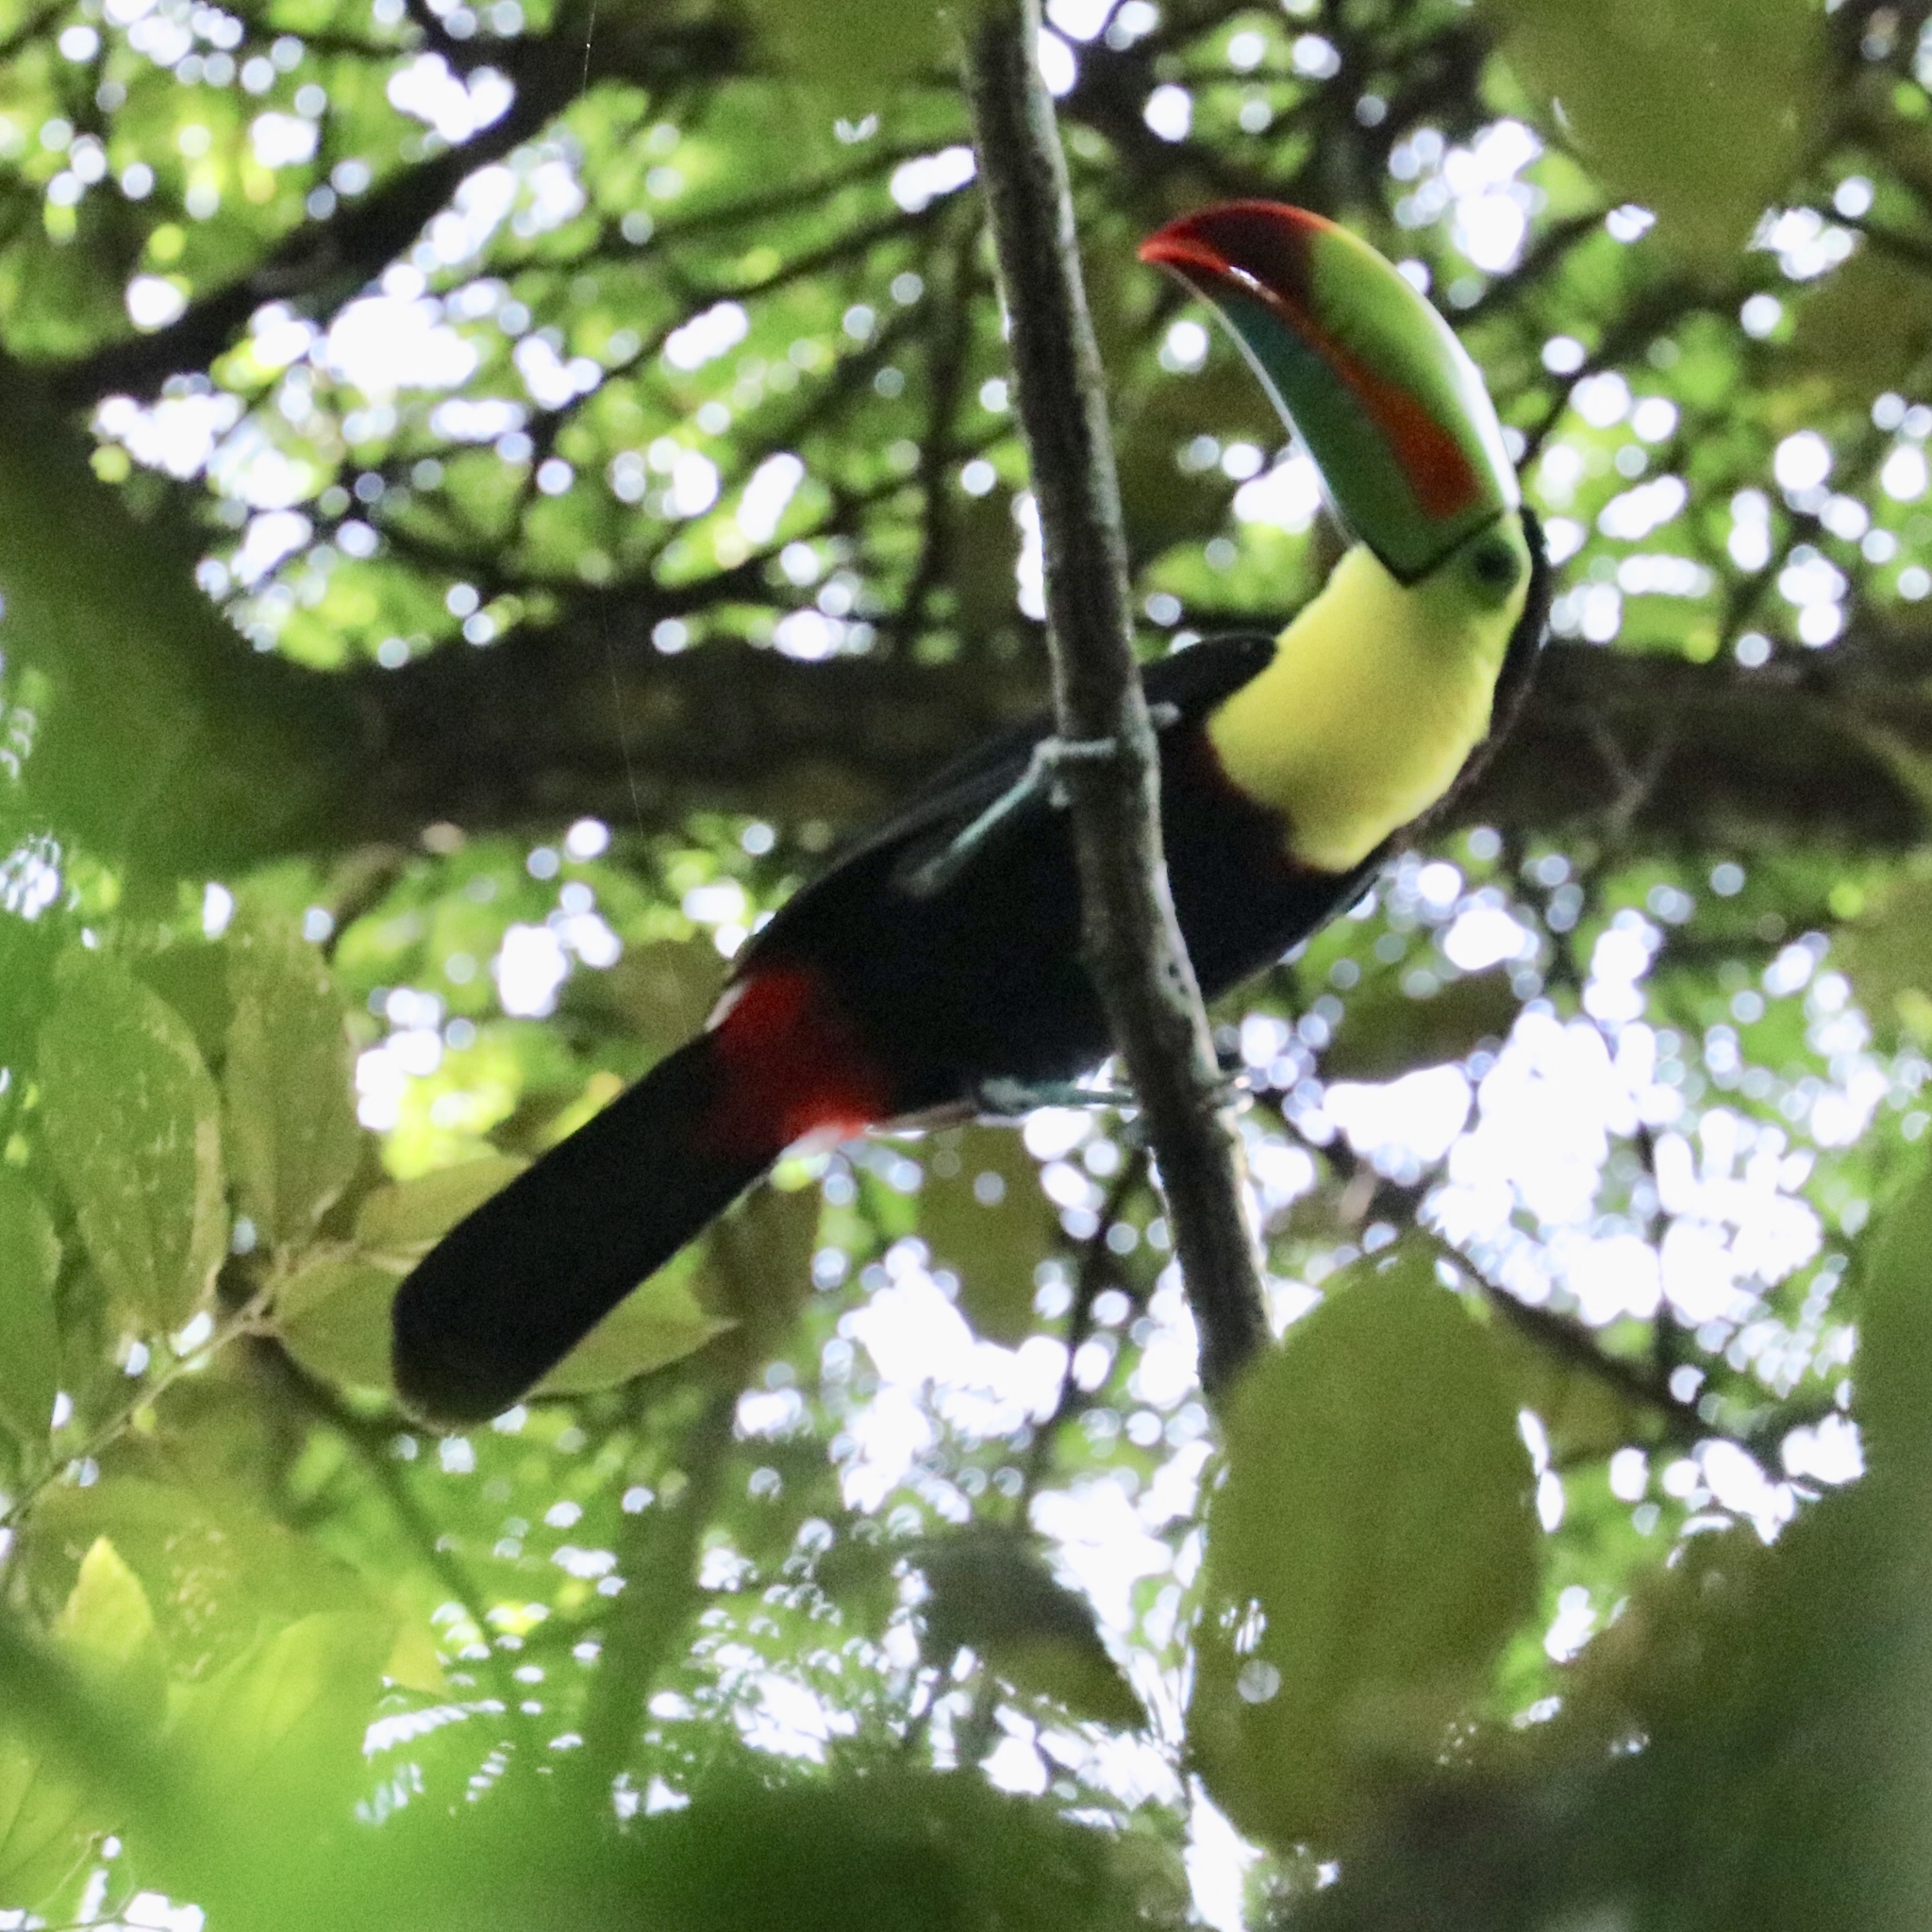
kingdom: Animalia
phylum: Chordata
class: Aves
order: Piciformes
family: Ramphastidae
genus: Ramphastos
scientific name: Ramphastos sulfuratus
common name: Keel-billed toucan
